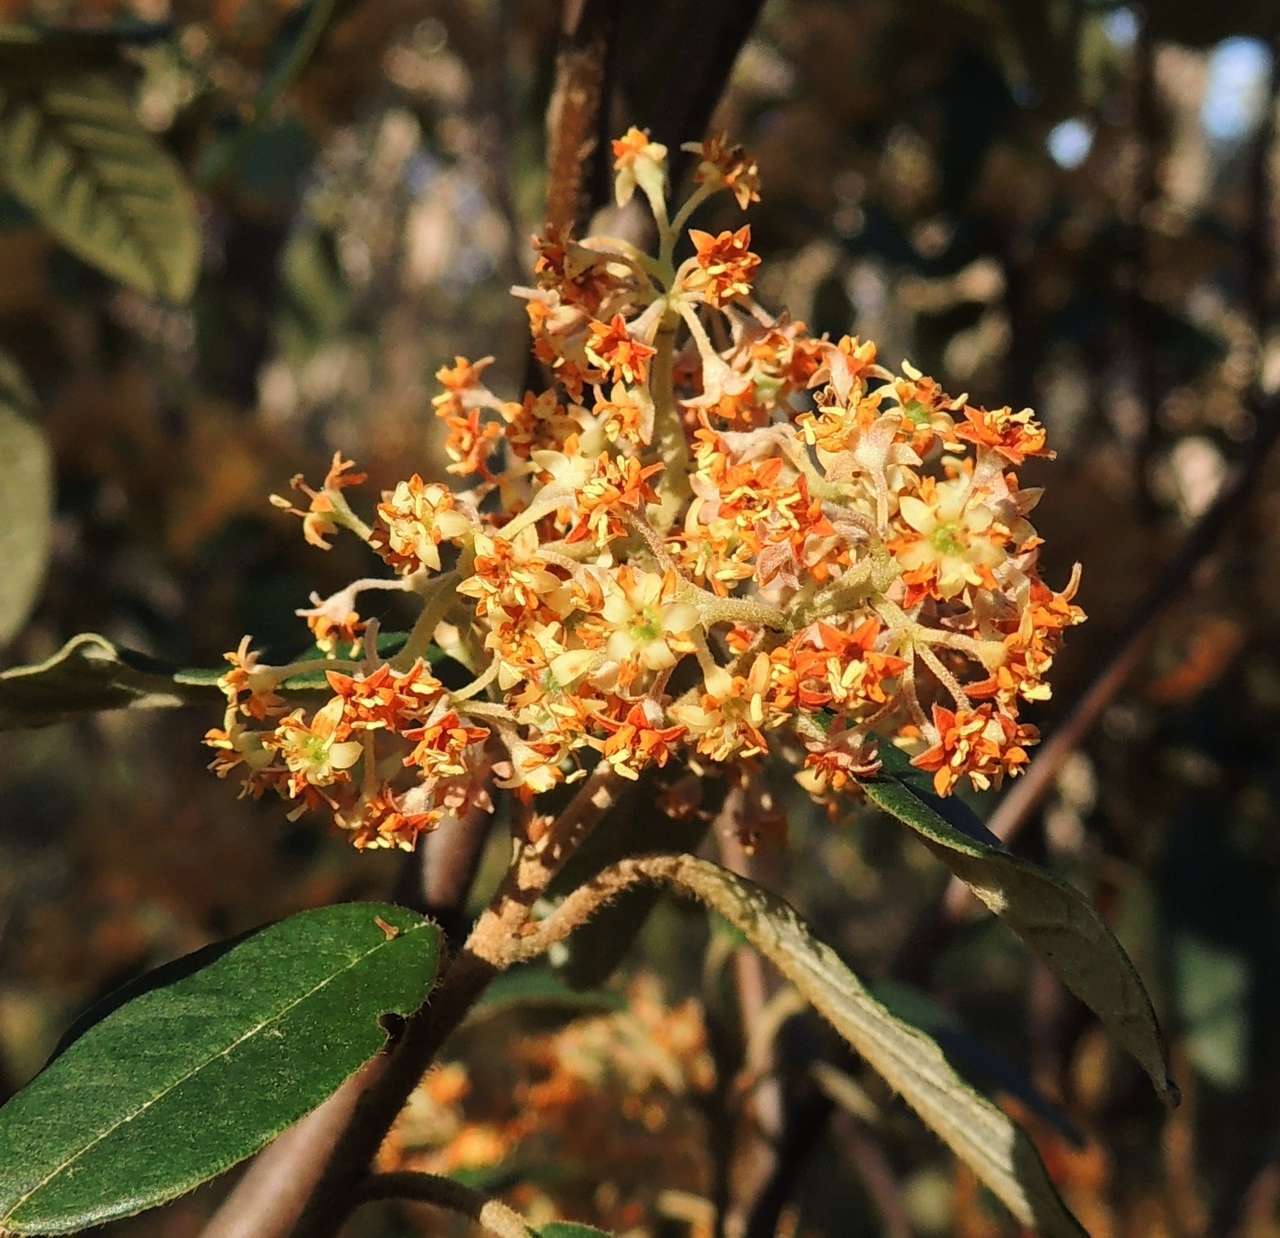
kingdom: Plantae
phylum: Tracheophyta
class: Magnoliopsida
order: Rosales
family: Rhamnaceae
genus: Pomaderris
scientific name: Pomaderris elliptica
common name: Yellow-dogwood
